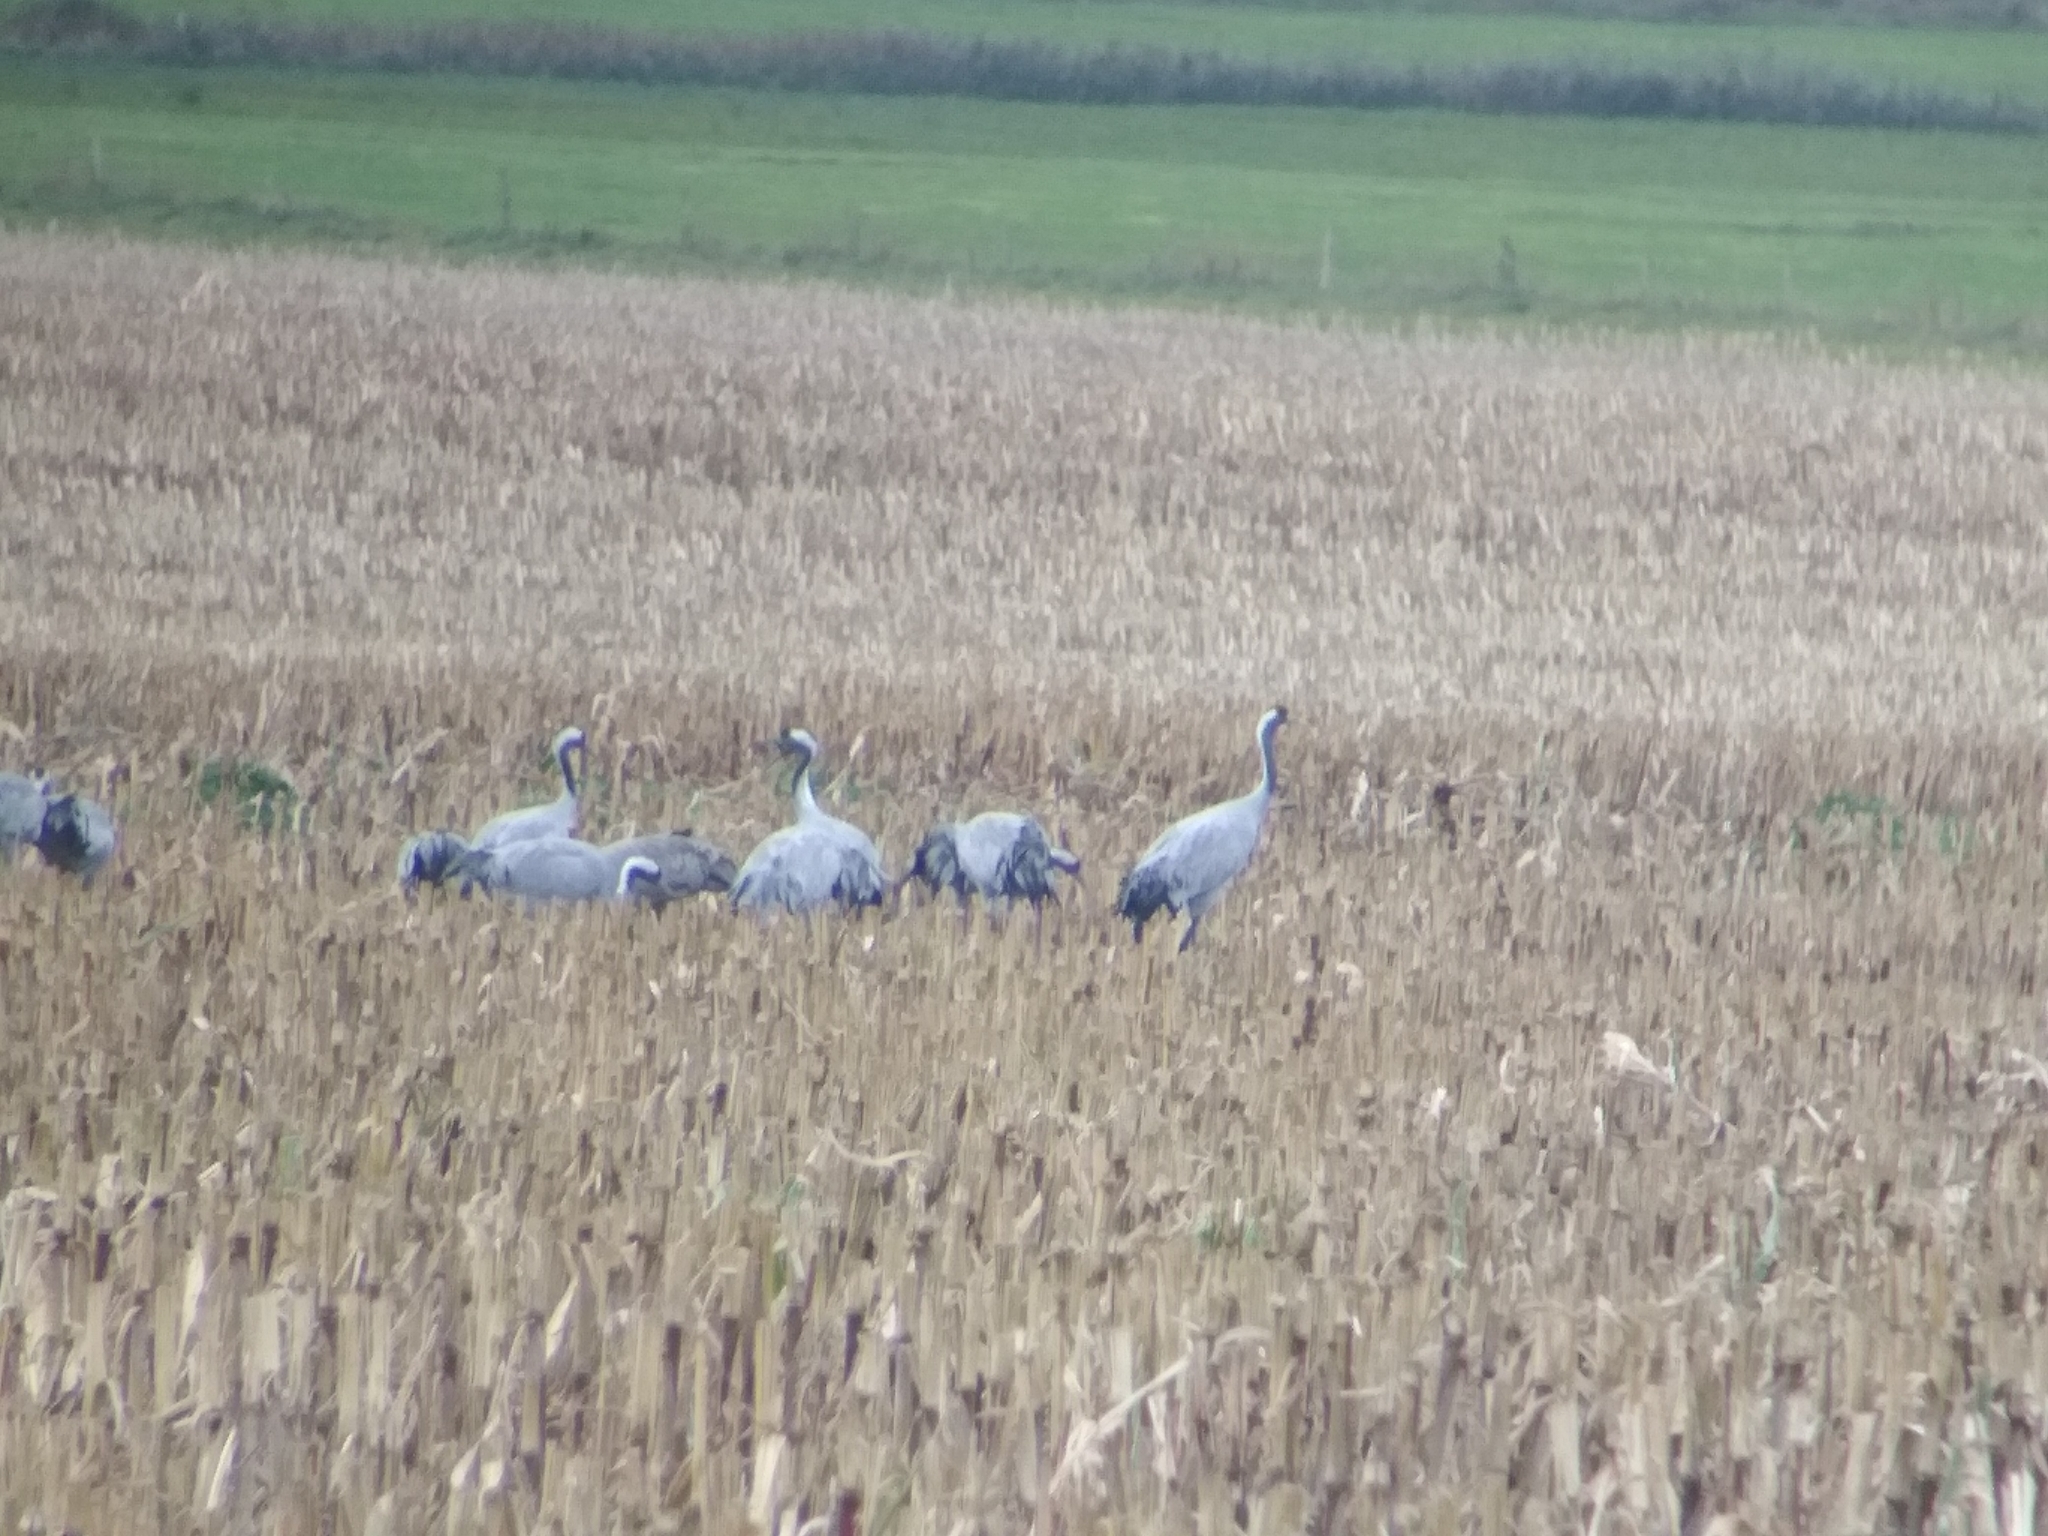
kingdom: Animalia
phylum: Chordata
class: Aves
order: Gruiformes
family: Gruidae
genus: Grus
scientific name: Grus grus
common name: Common crane
